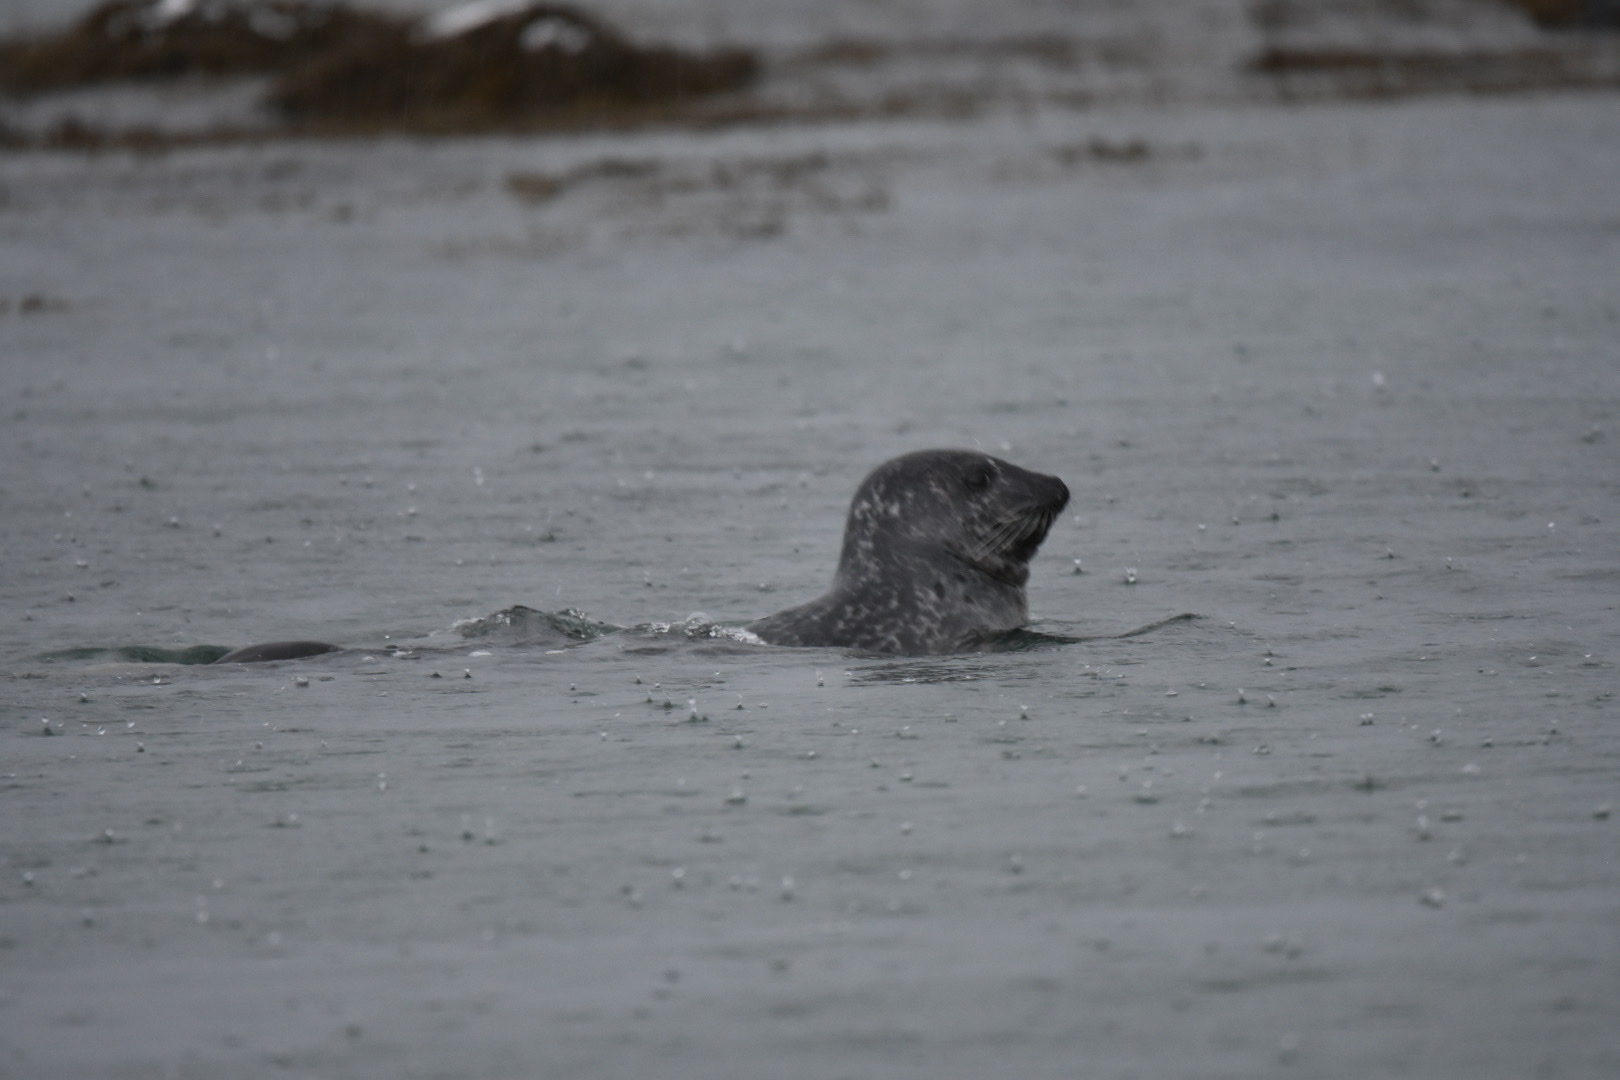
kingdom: Animalia
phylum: Chordata
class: Mammalia
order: Carnivora
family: Phocidae
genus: Phoca
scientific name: Phoca vitulina
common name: Harbor seal
